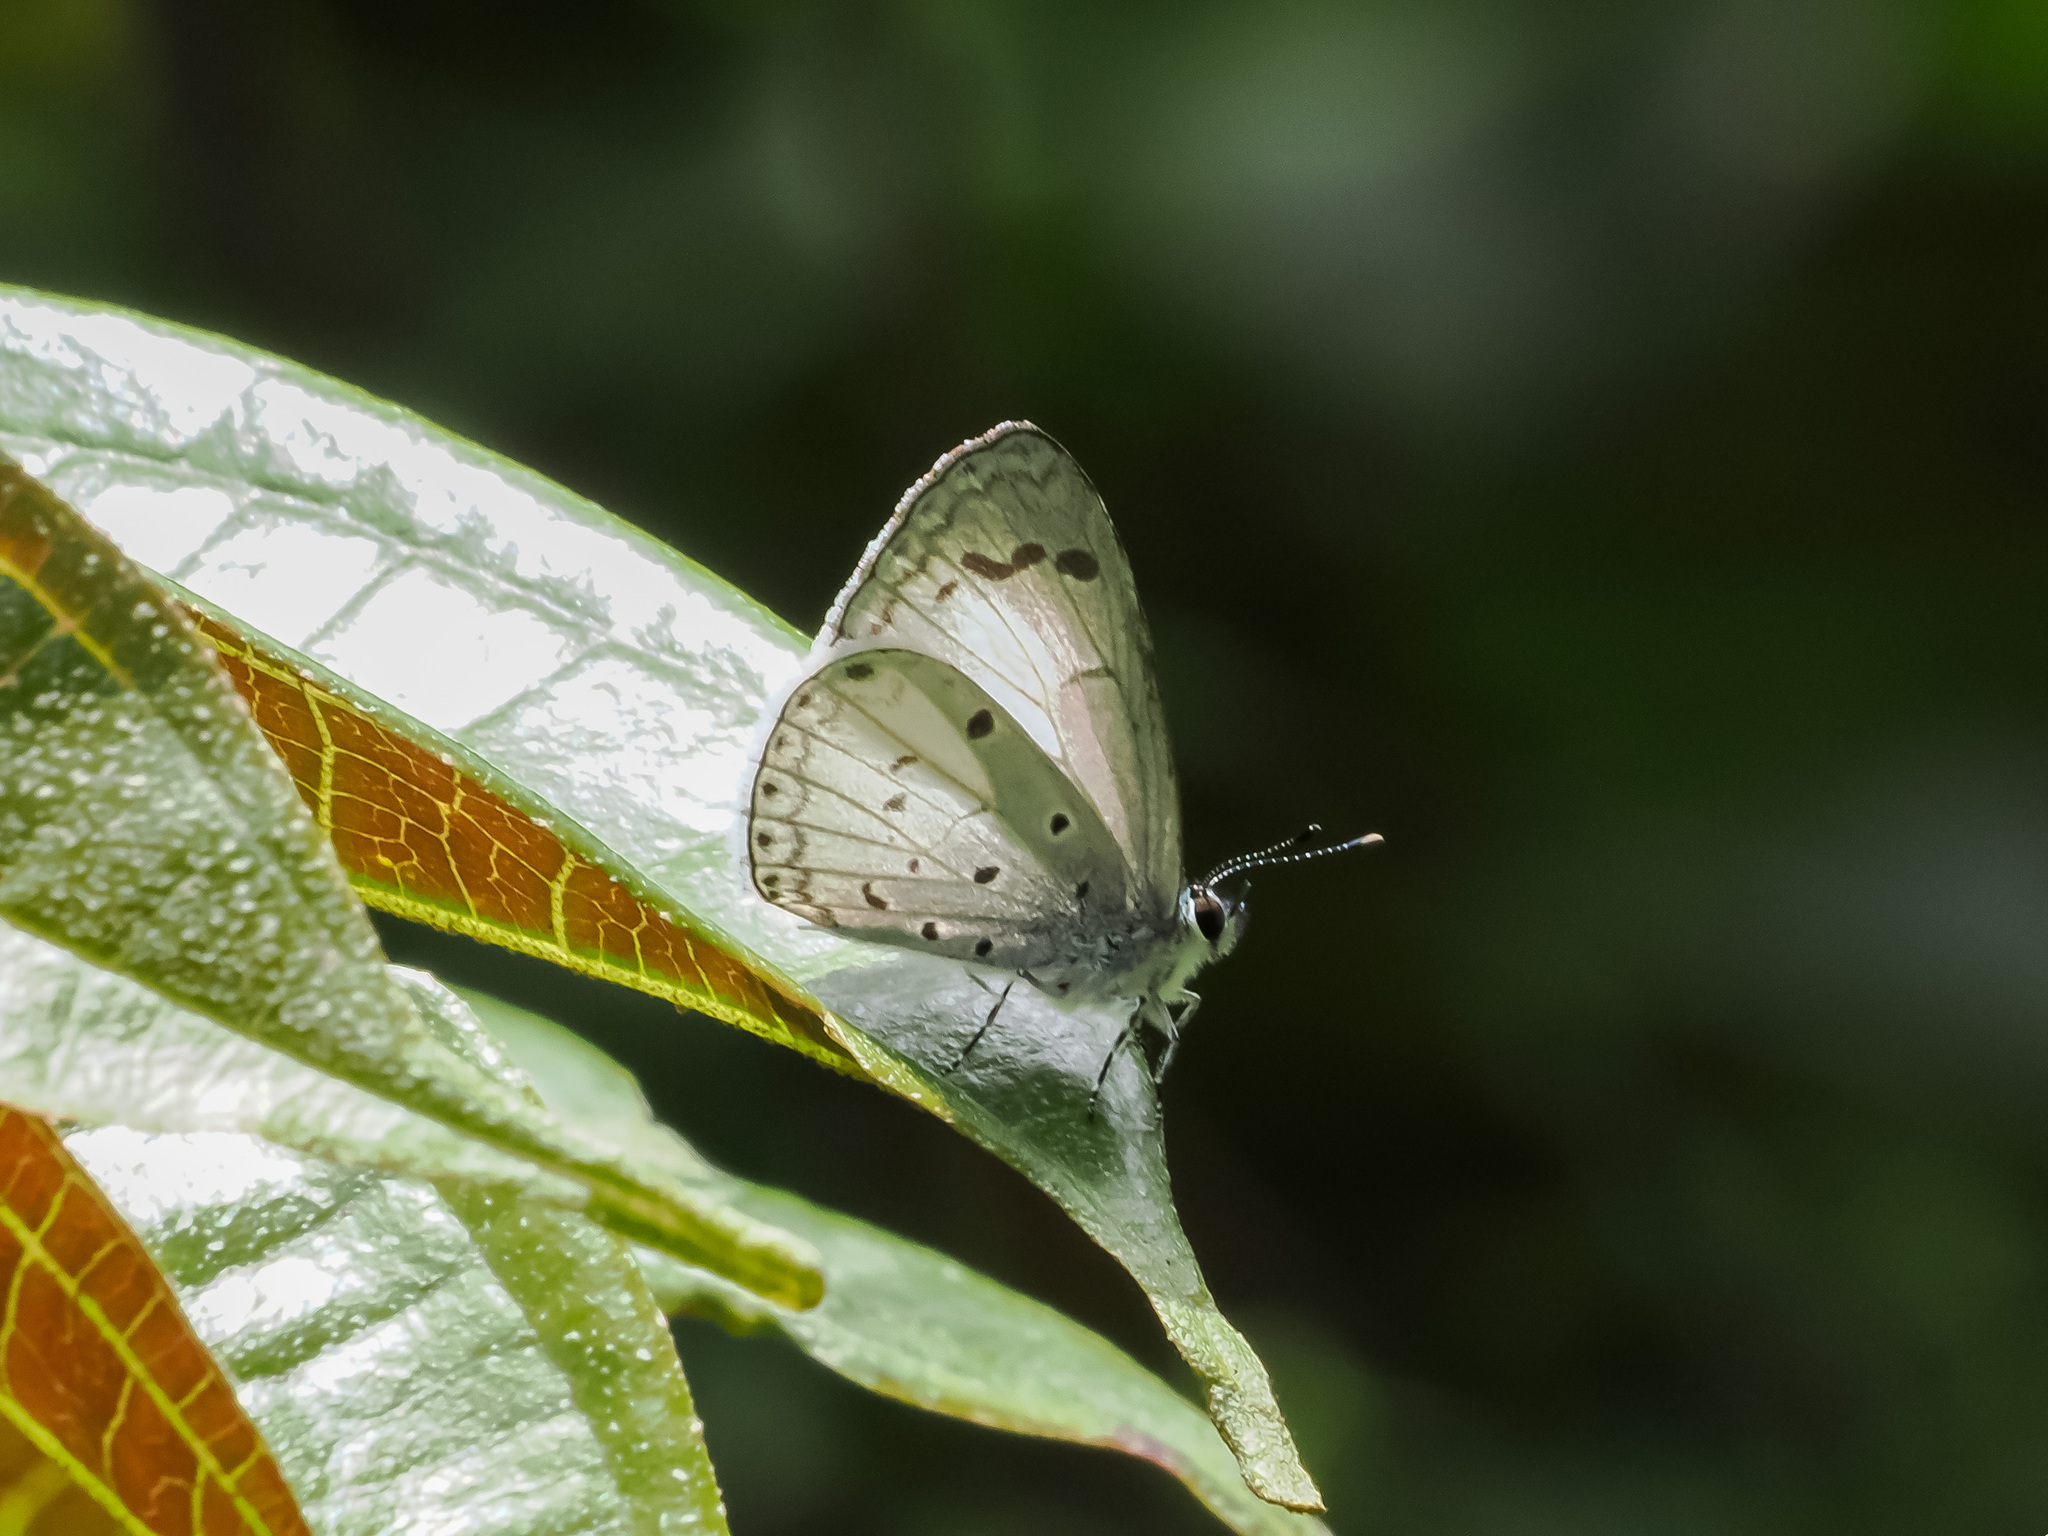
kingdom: Animalia
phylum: Arthropoda
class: Insecta
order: Lepidoptera
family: Lycaenidae
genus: Celatoxia
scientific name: Celatoxia
